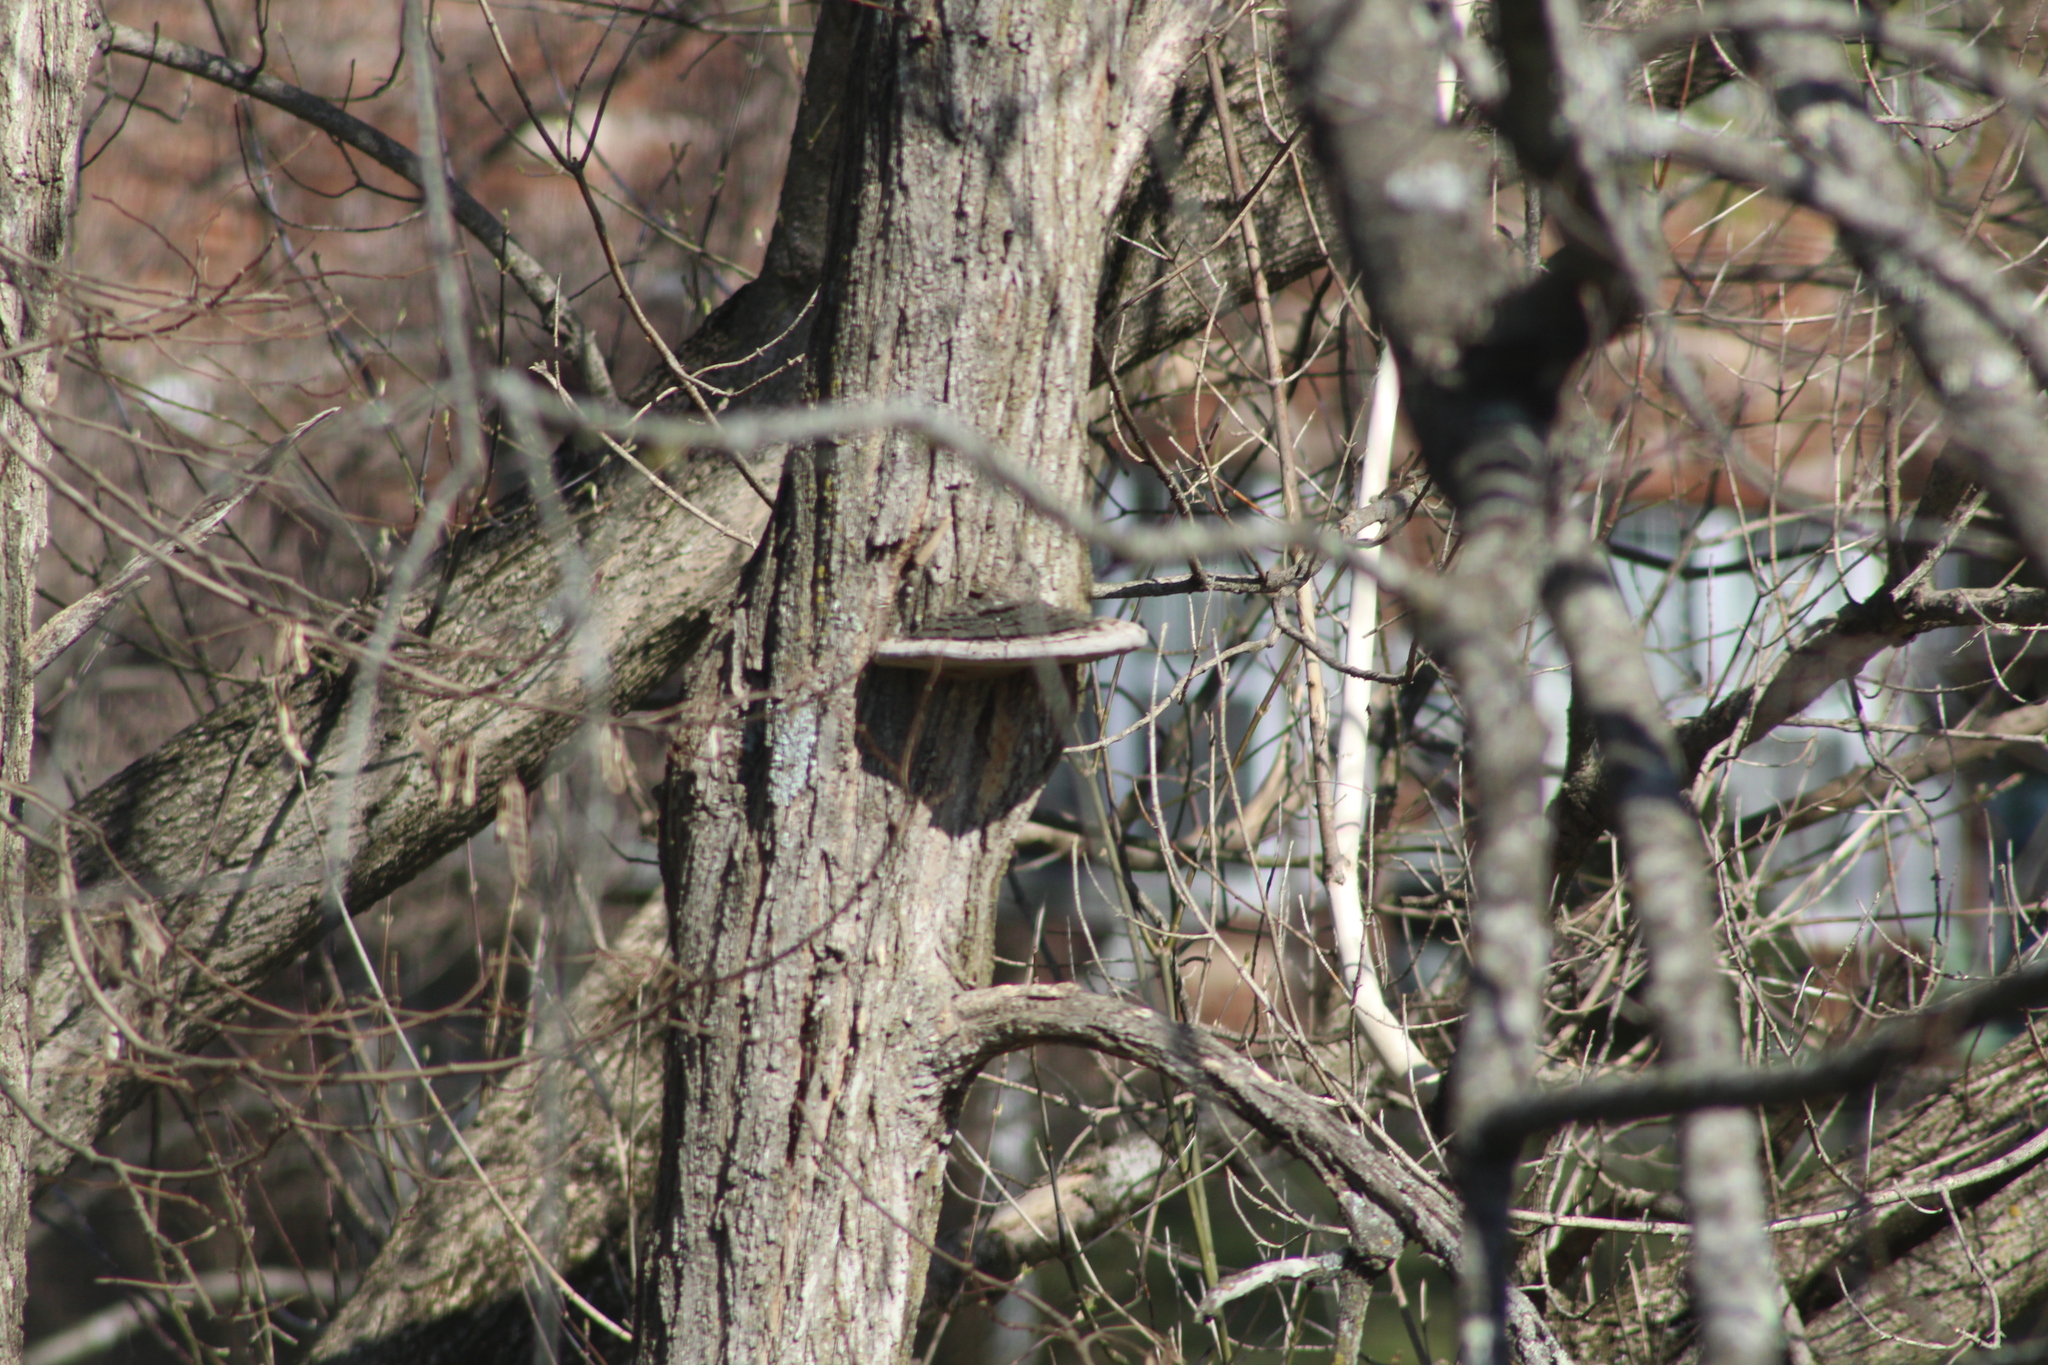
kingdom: Fungi
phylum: Basidiomycota
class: Agaricomycetes
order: Hymenochaetales
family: Hymenochaetaceae
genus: Phellinus
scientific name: Phellinus robiniae
